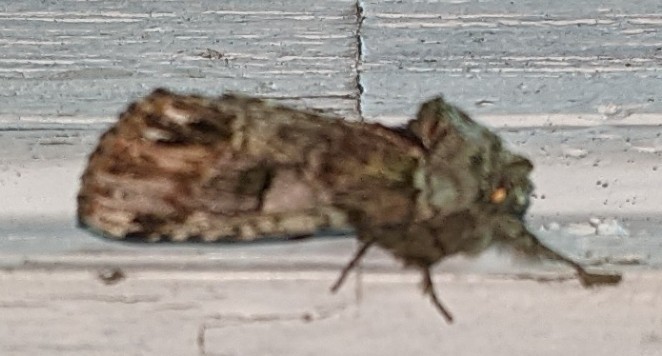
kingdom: Animalia
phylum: Arthropoda
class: Insecta
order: Lepidoptera
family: Notodontidae
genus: Schizura
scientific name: Schizura
